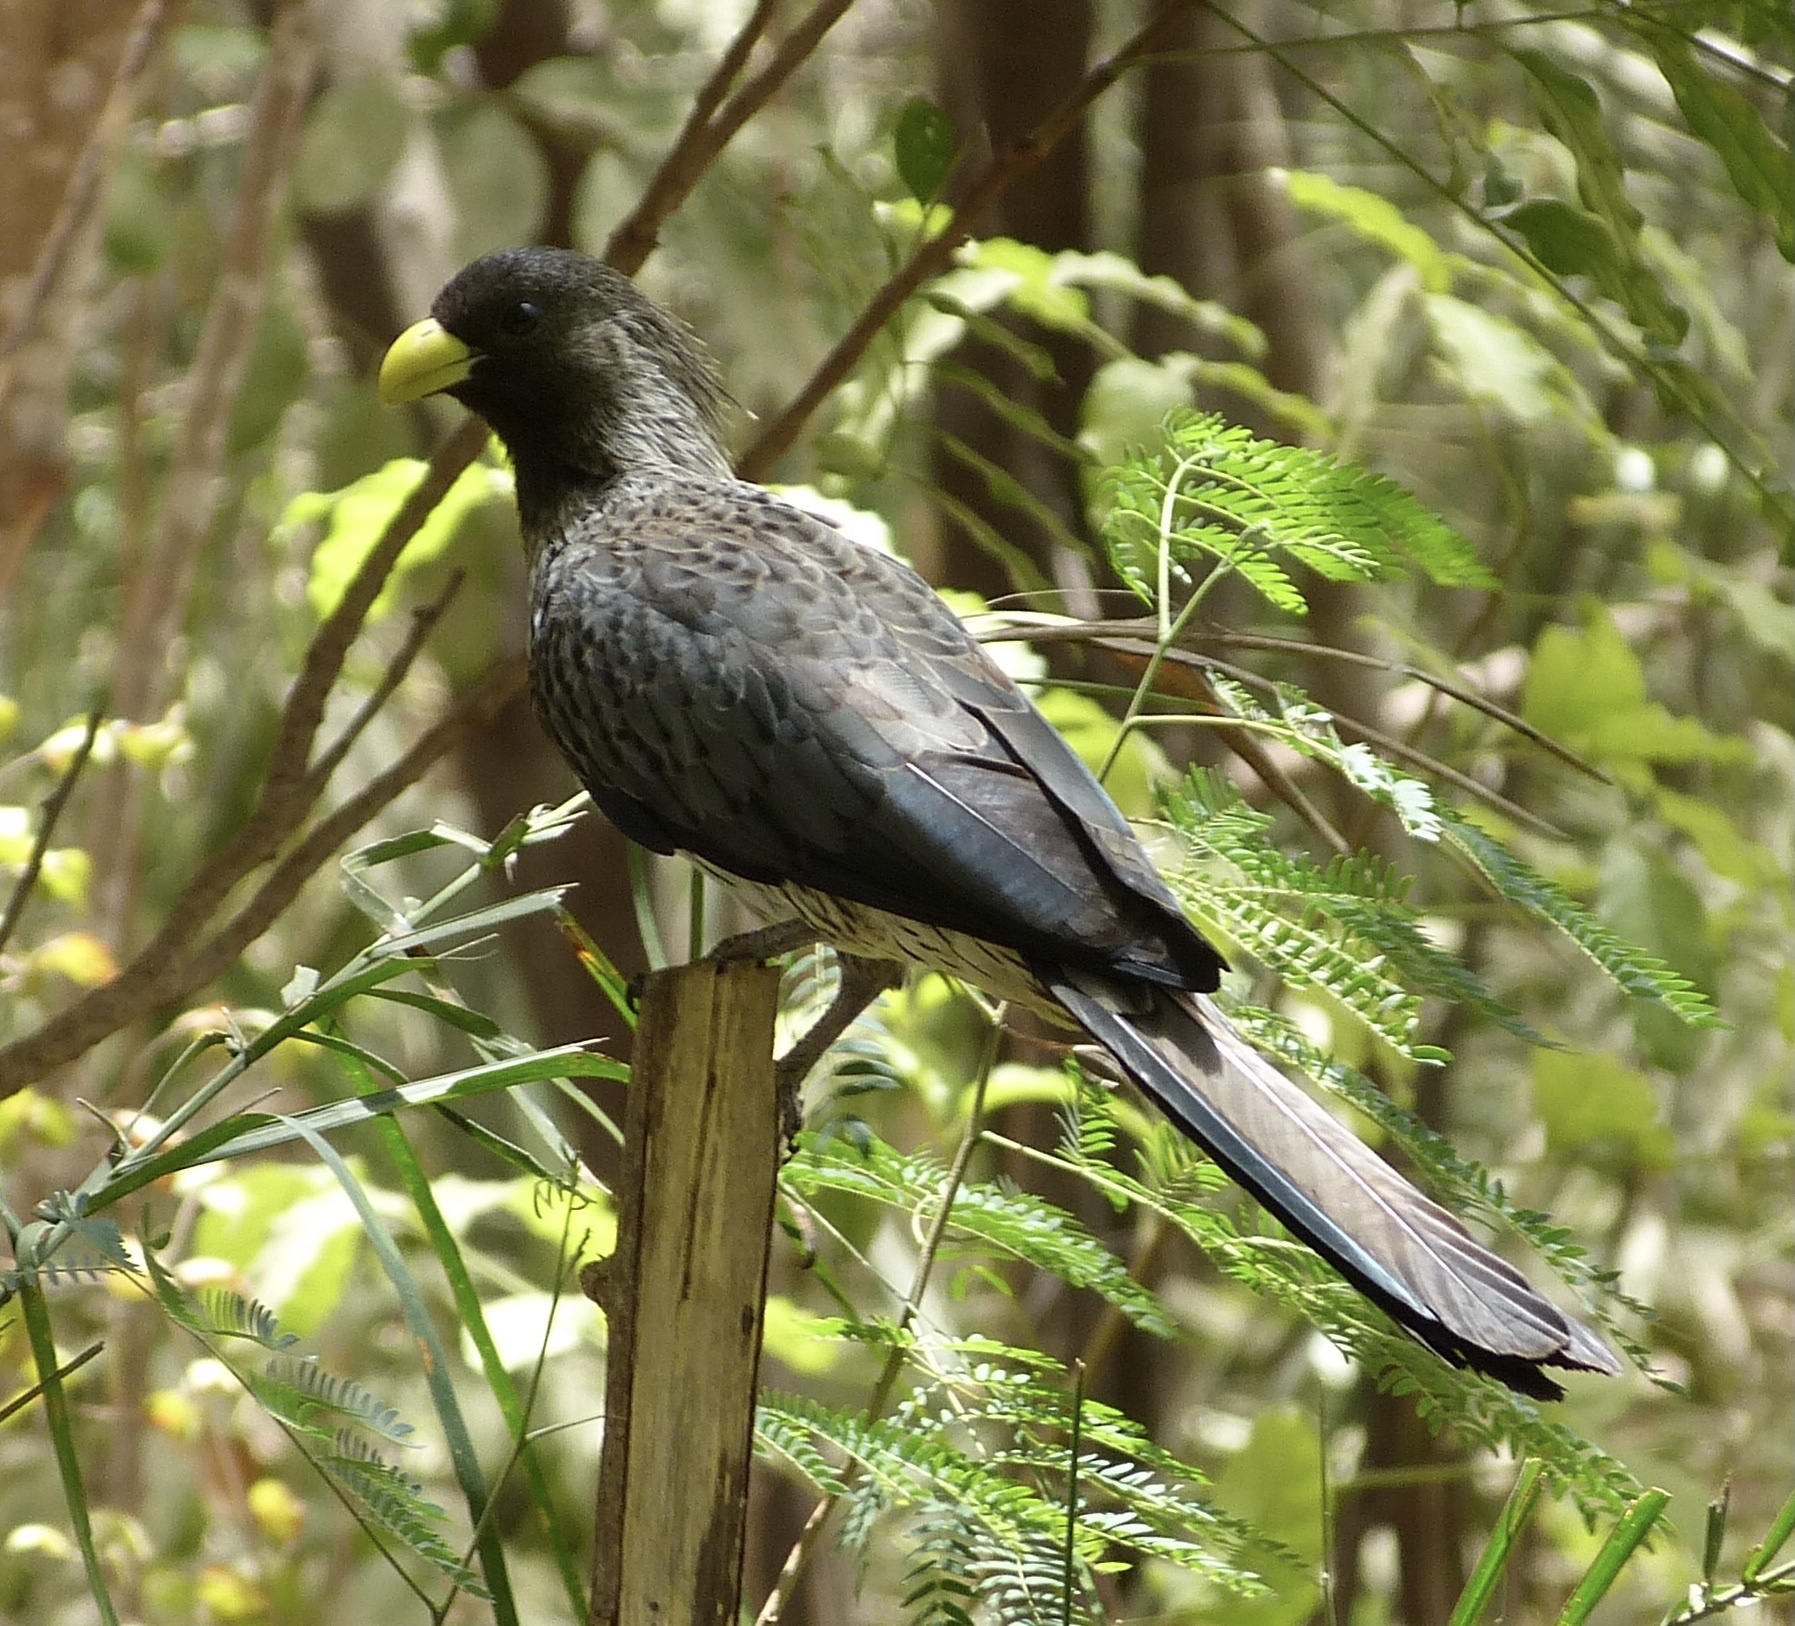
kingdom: Animalia
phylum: Chordata
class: Aves
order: Musophagiformes
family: Musophagidae
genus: Crinifer
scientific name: Crinifer piscator
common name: Western plantain-eater
